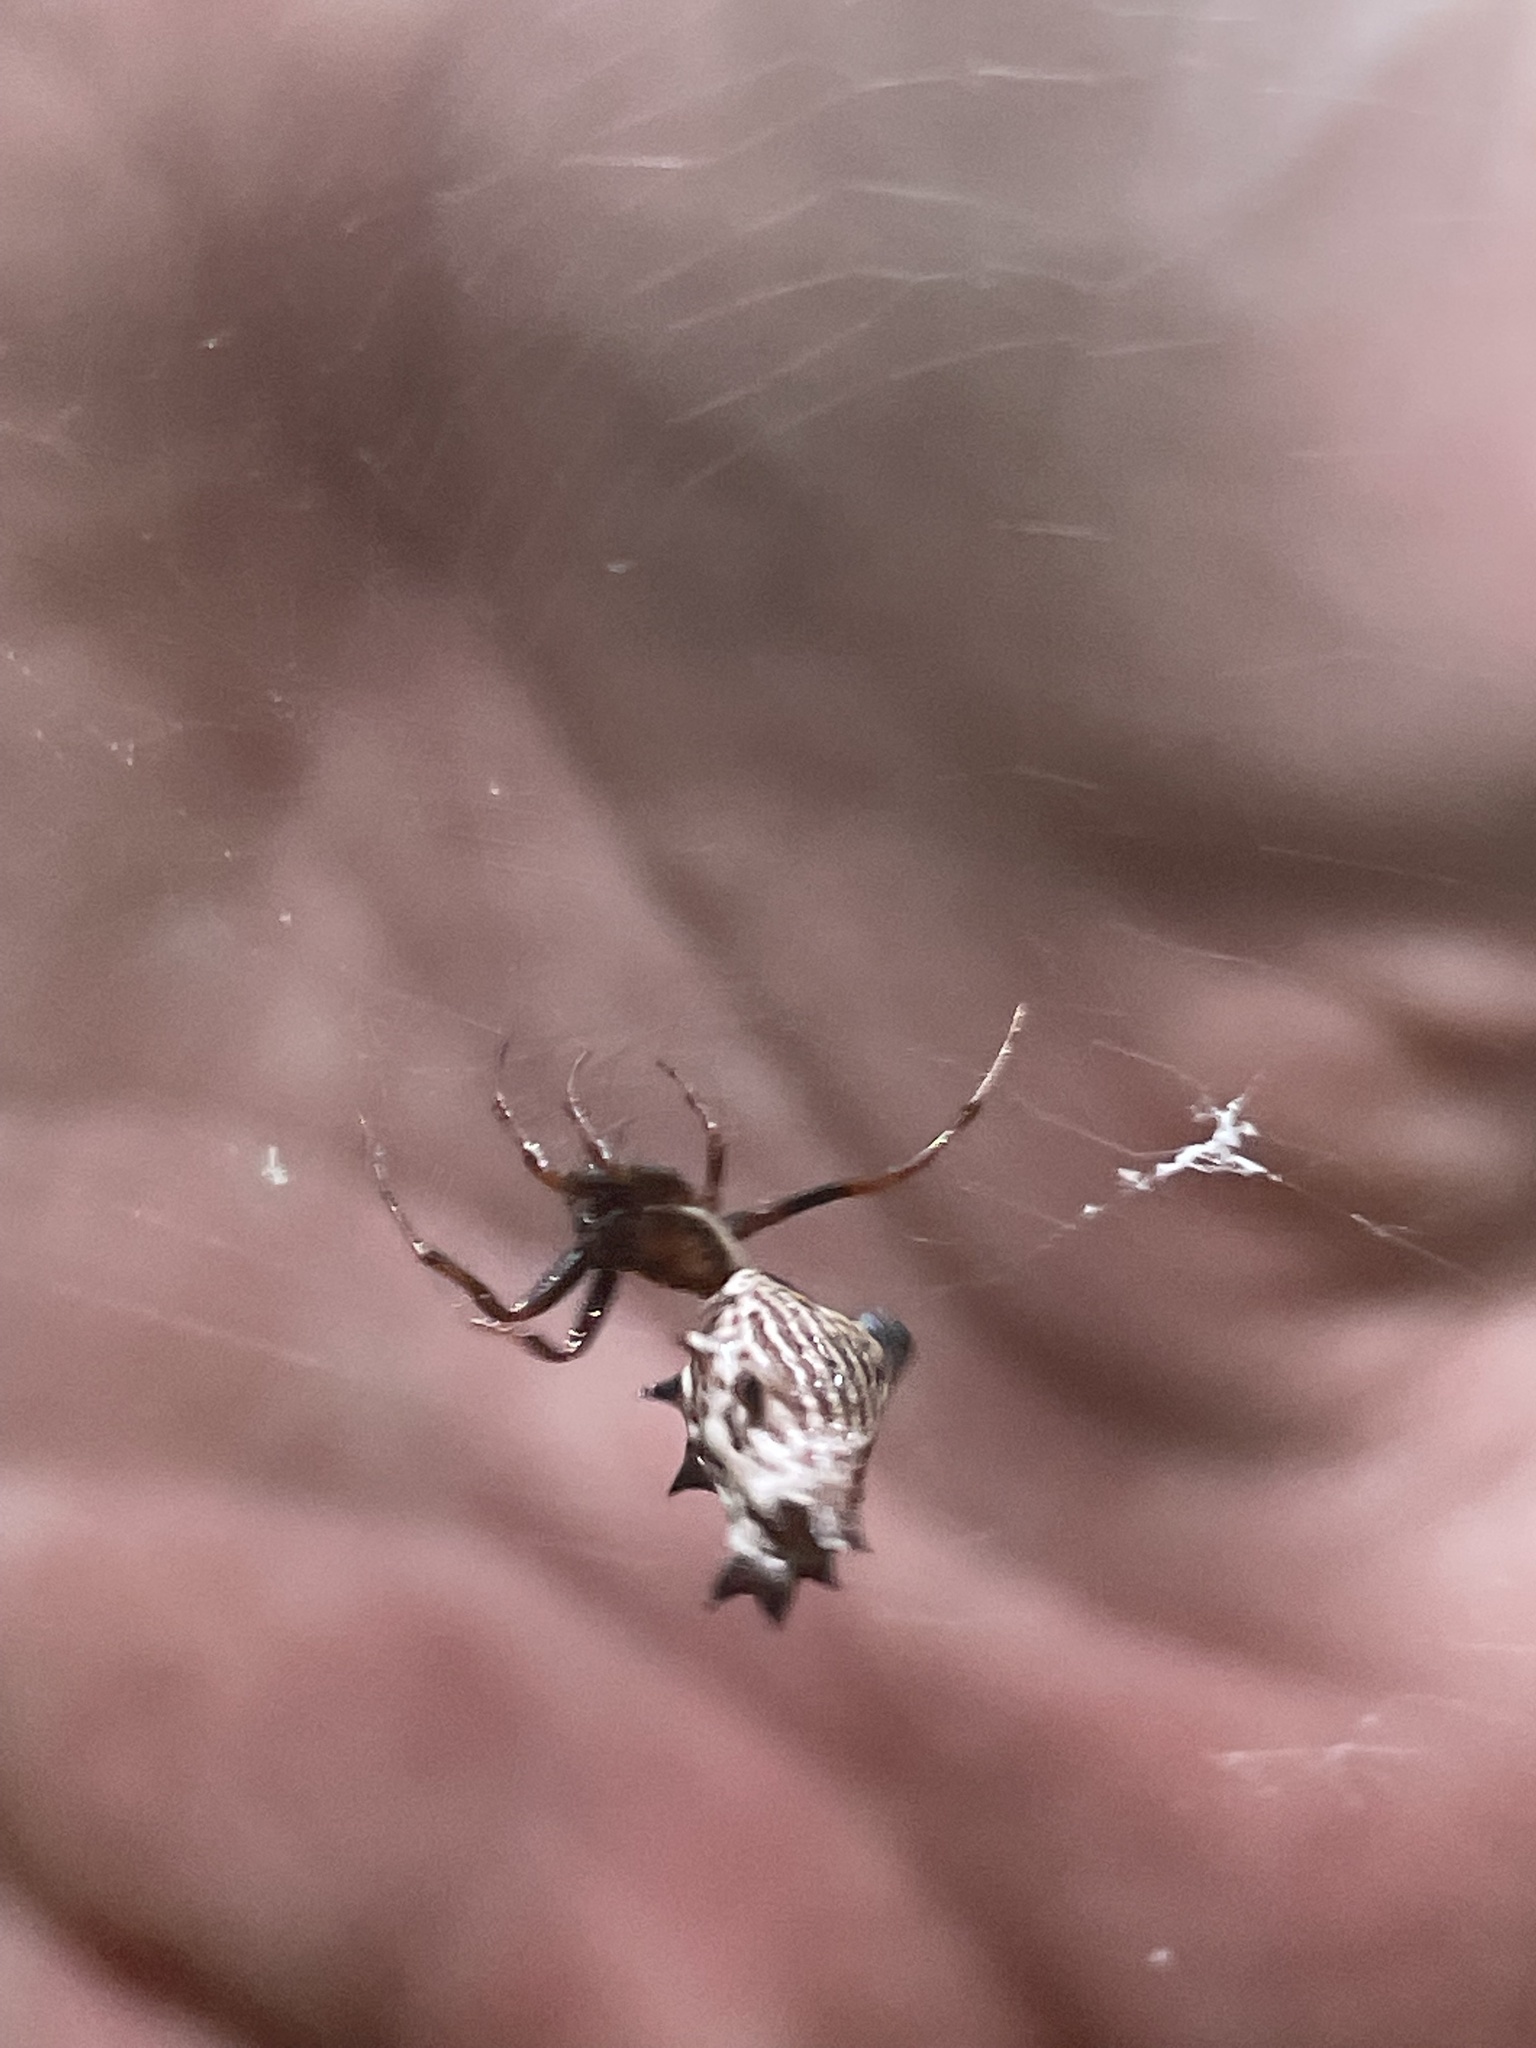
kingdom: Animalia
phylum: Arthropoda
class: Arachnida
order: Araneae
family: Araneidae
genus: Micrathena
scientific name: Micrathena gracilis
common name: Orb weavers
